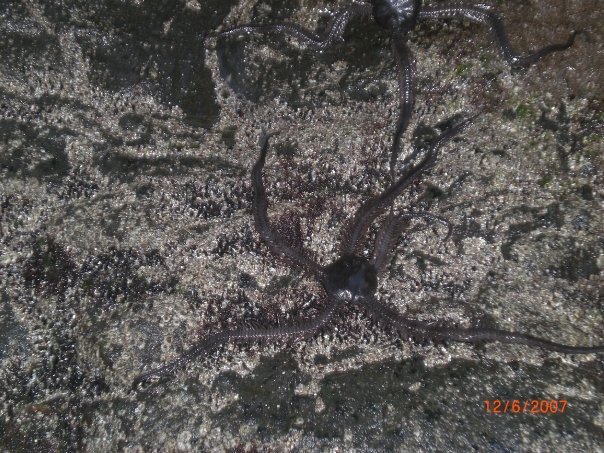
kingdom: Animalia
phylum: Echinodermata
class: Ophiuroidea
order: Ophiacanthida
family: Ophiocomidae
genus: Ophiocoma
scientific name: Ophiocoma aethiops
